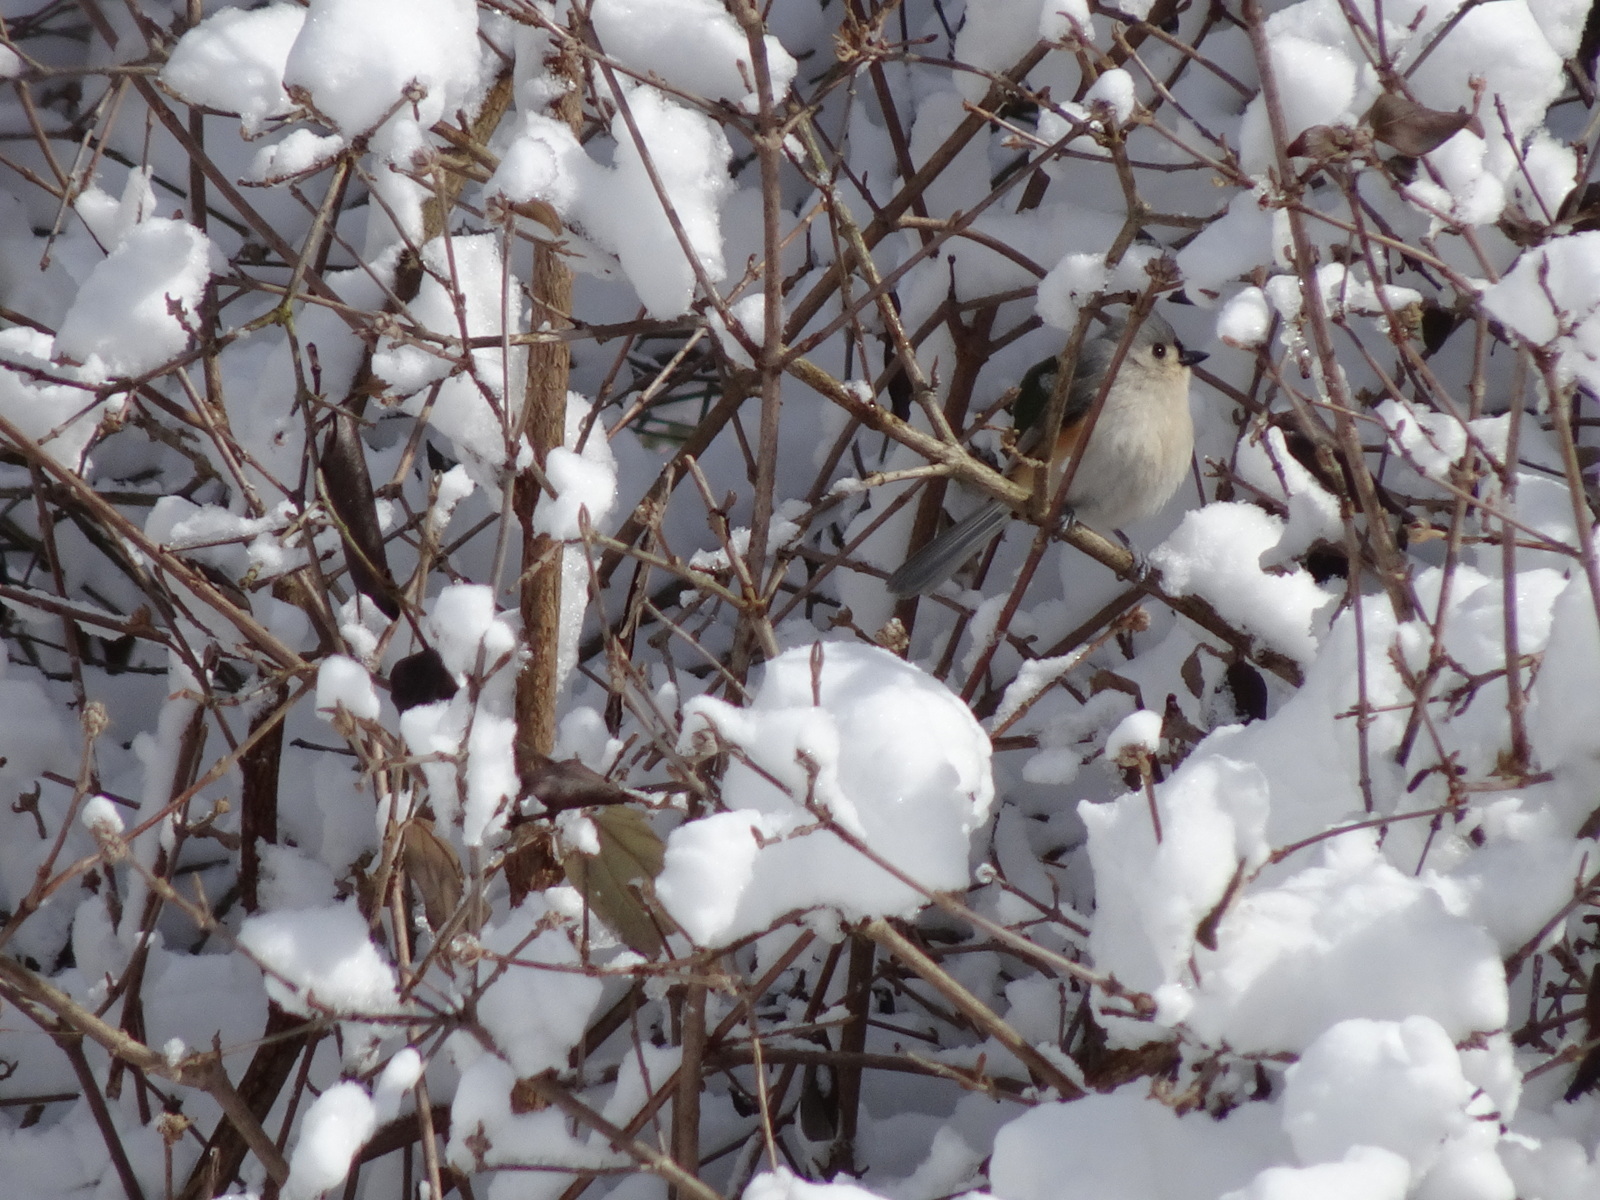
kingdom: Animalia
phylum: Chordata
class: Aves
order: Passeriformes
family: Paridae
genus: Baeolophus
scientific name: Baeolophus bicolor
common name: Tufted titmouse
